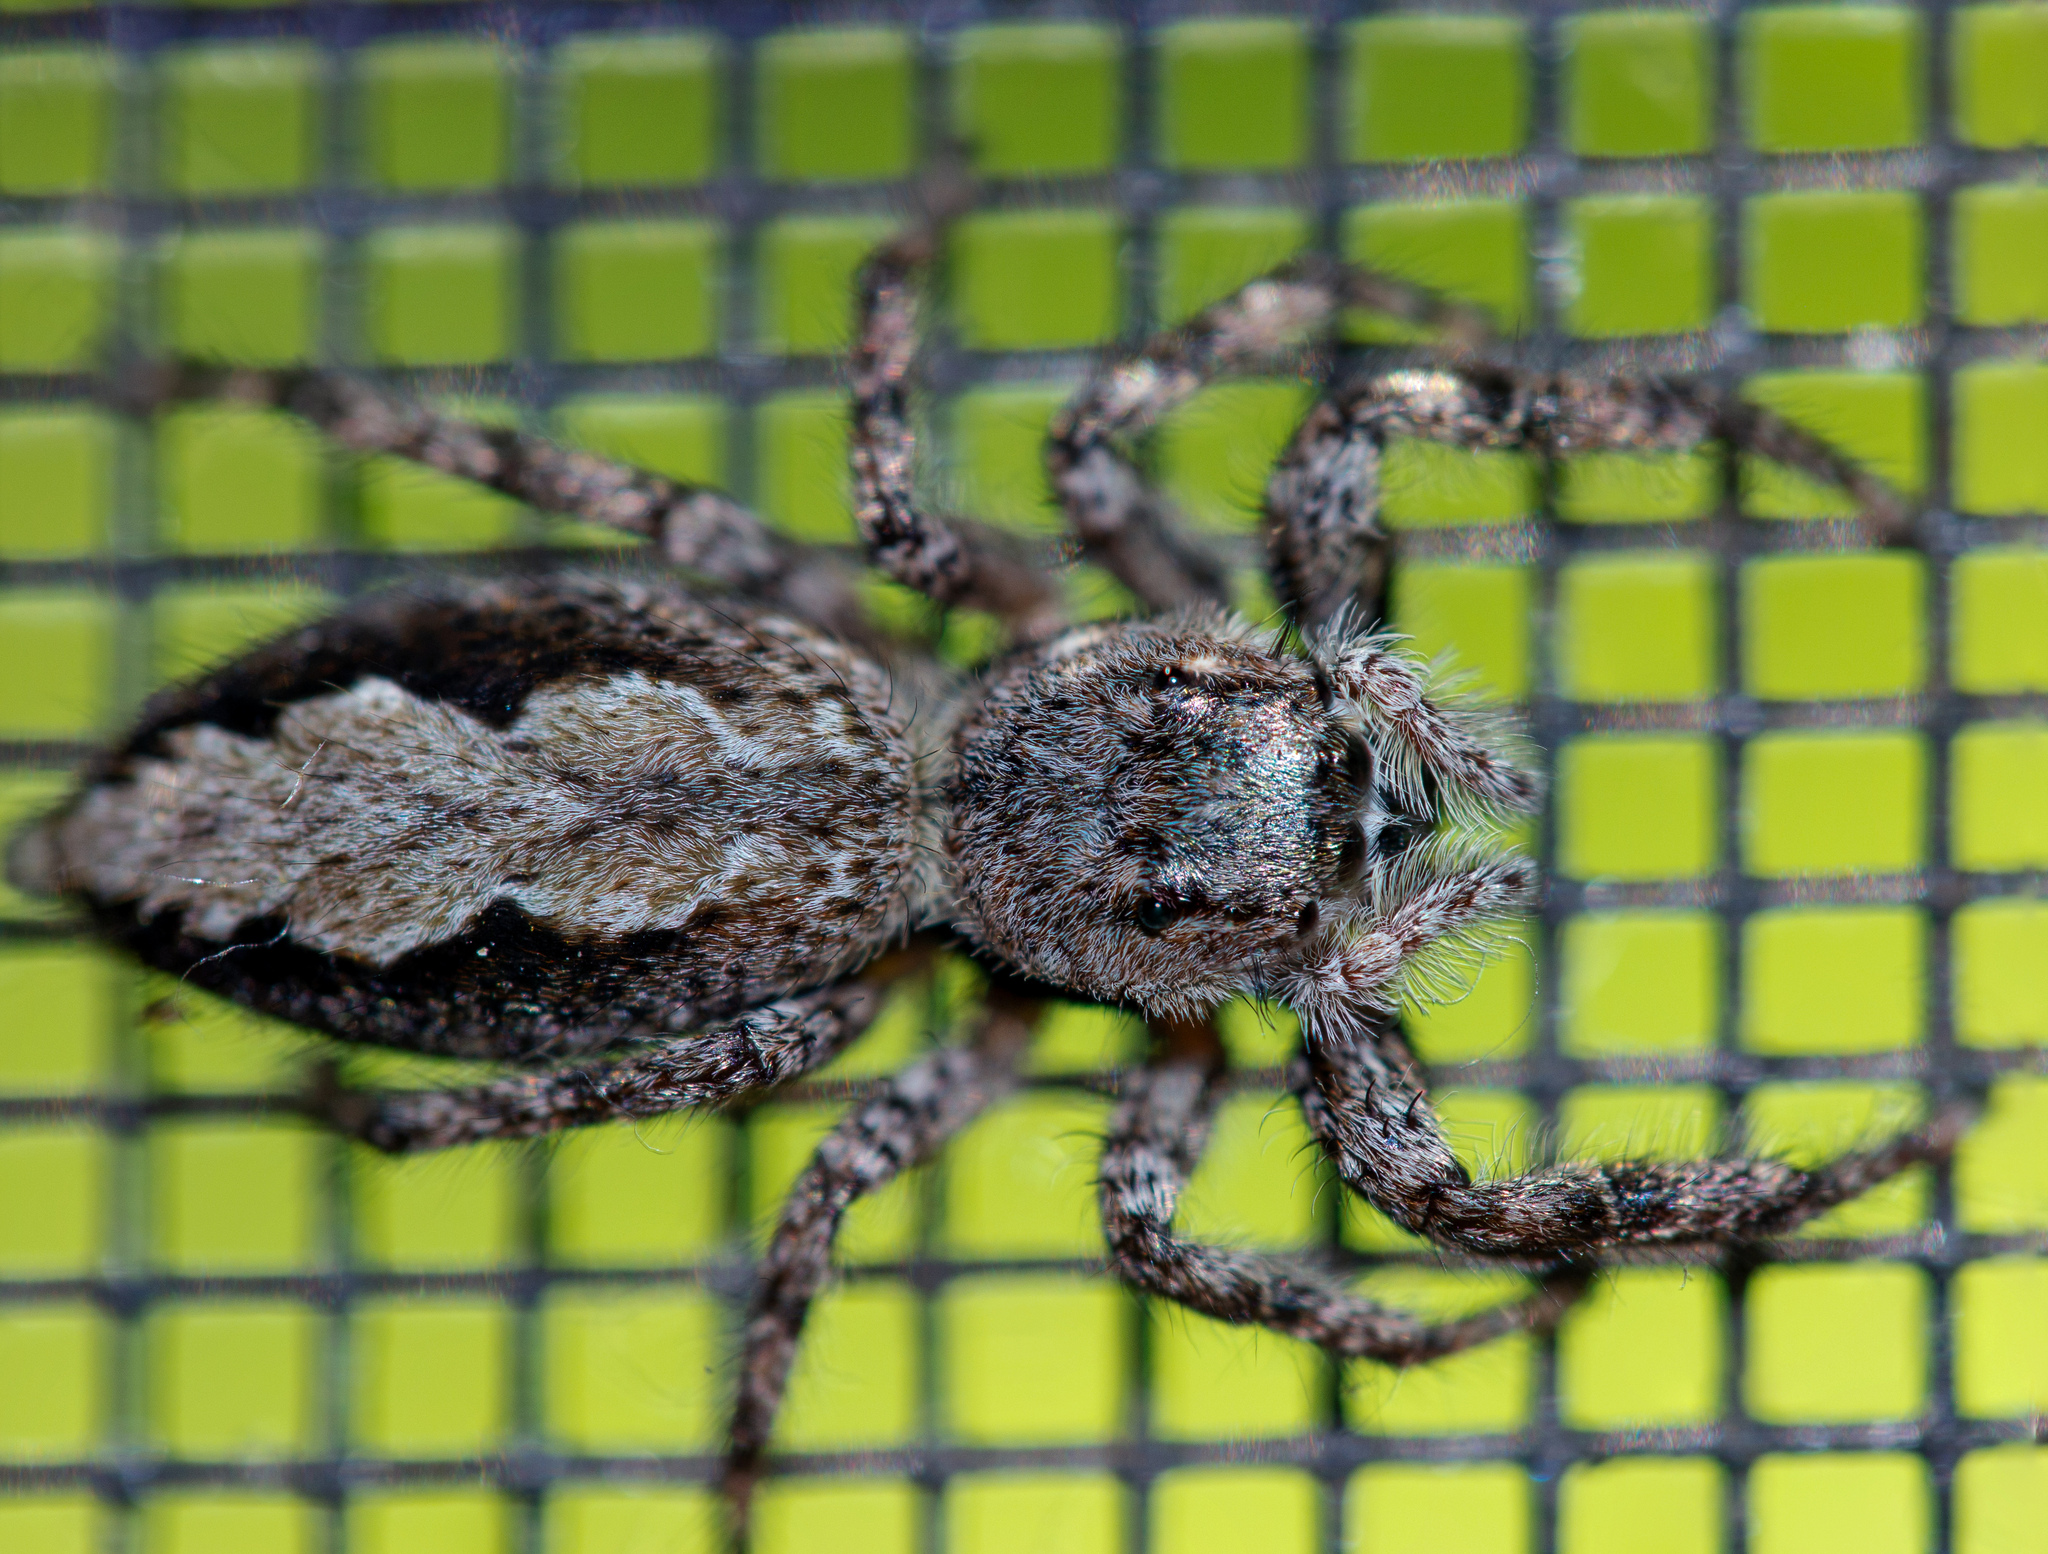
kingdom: Animalia
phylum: Arthropoda
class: Arachnida
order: Araneae
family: Salticidae
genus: Platycryptus
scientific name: Platycryptus undatus
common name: Tan jumping spider
